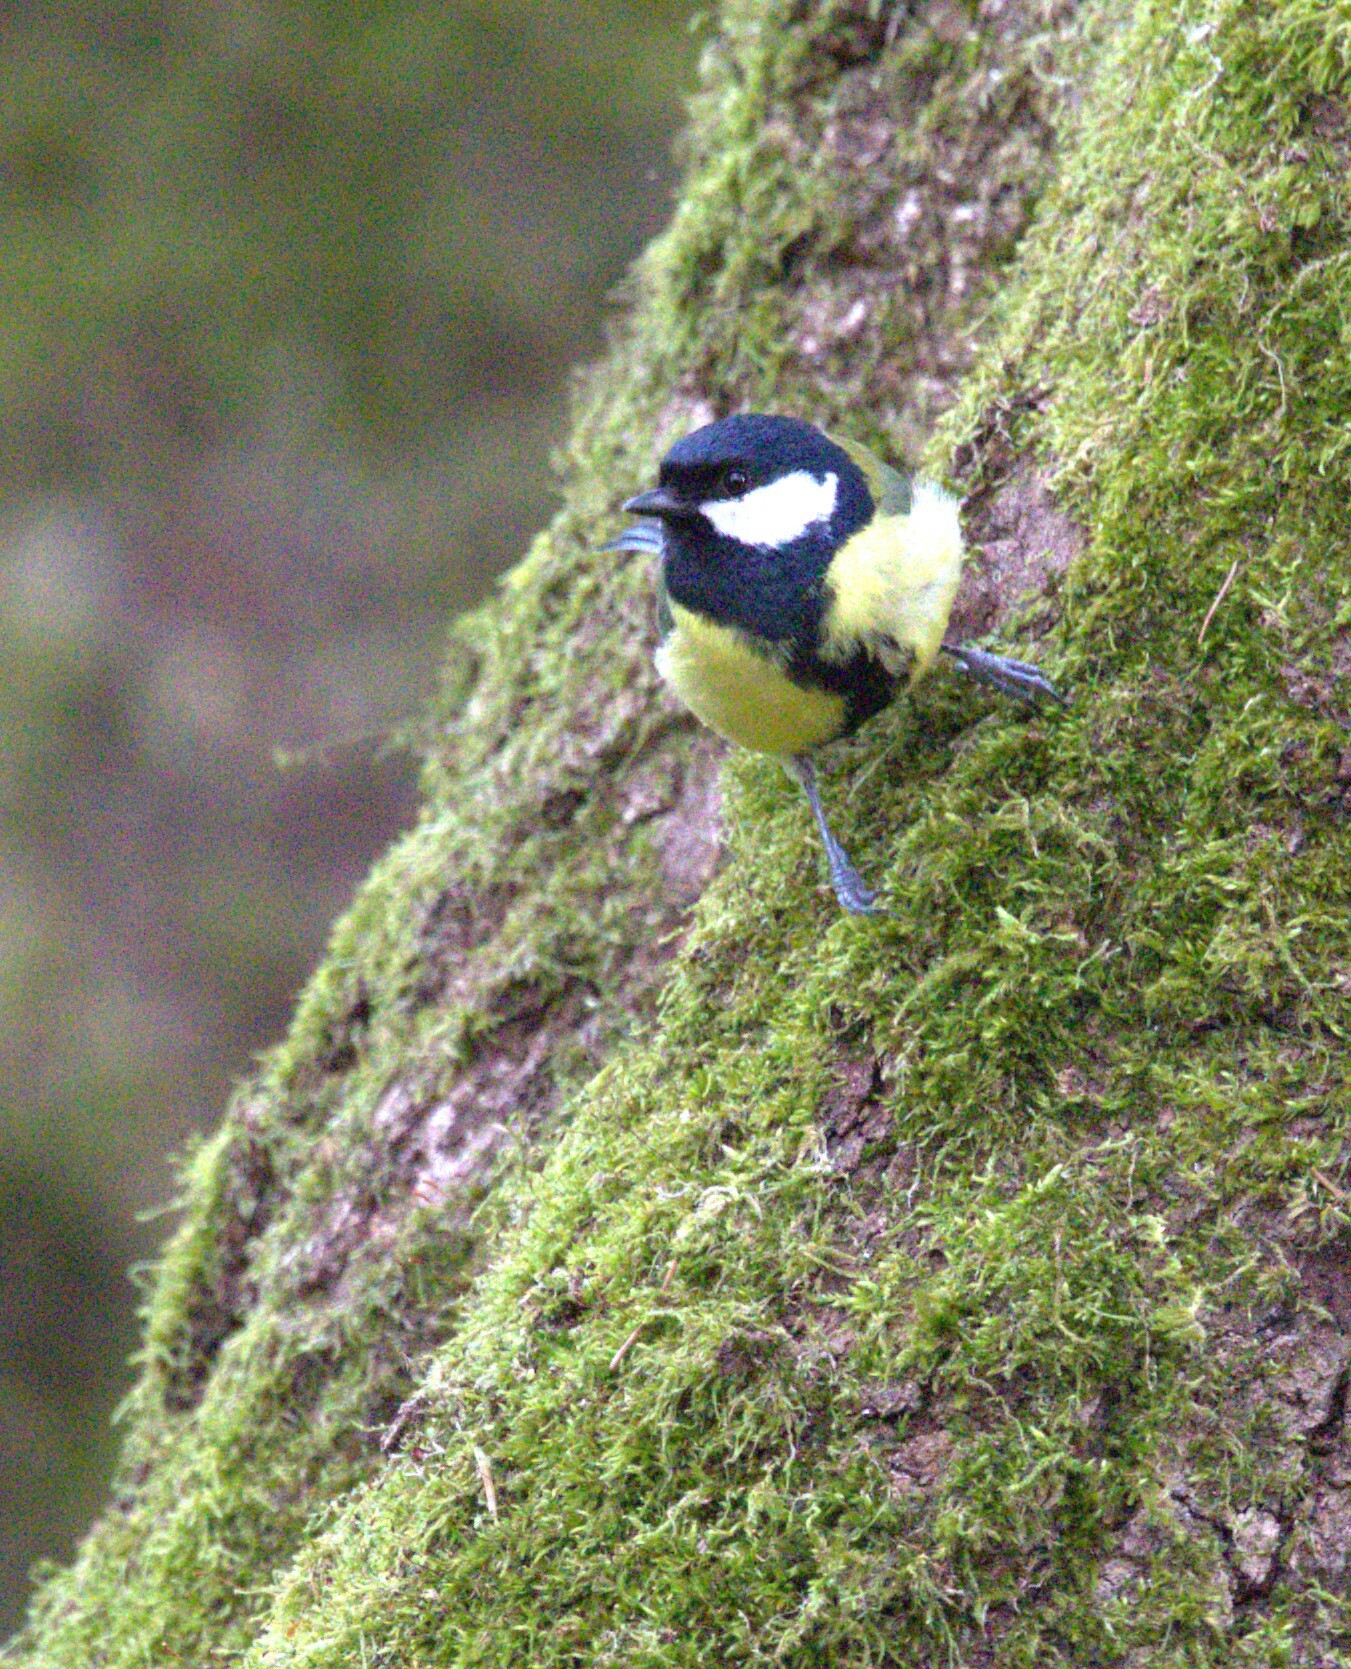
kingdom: Animalia
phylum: Chordata
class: Aves
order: Passeriformes
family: Paridae
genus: Parus
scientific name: Parus major
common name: Great tit
